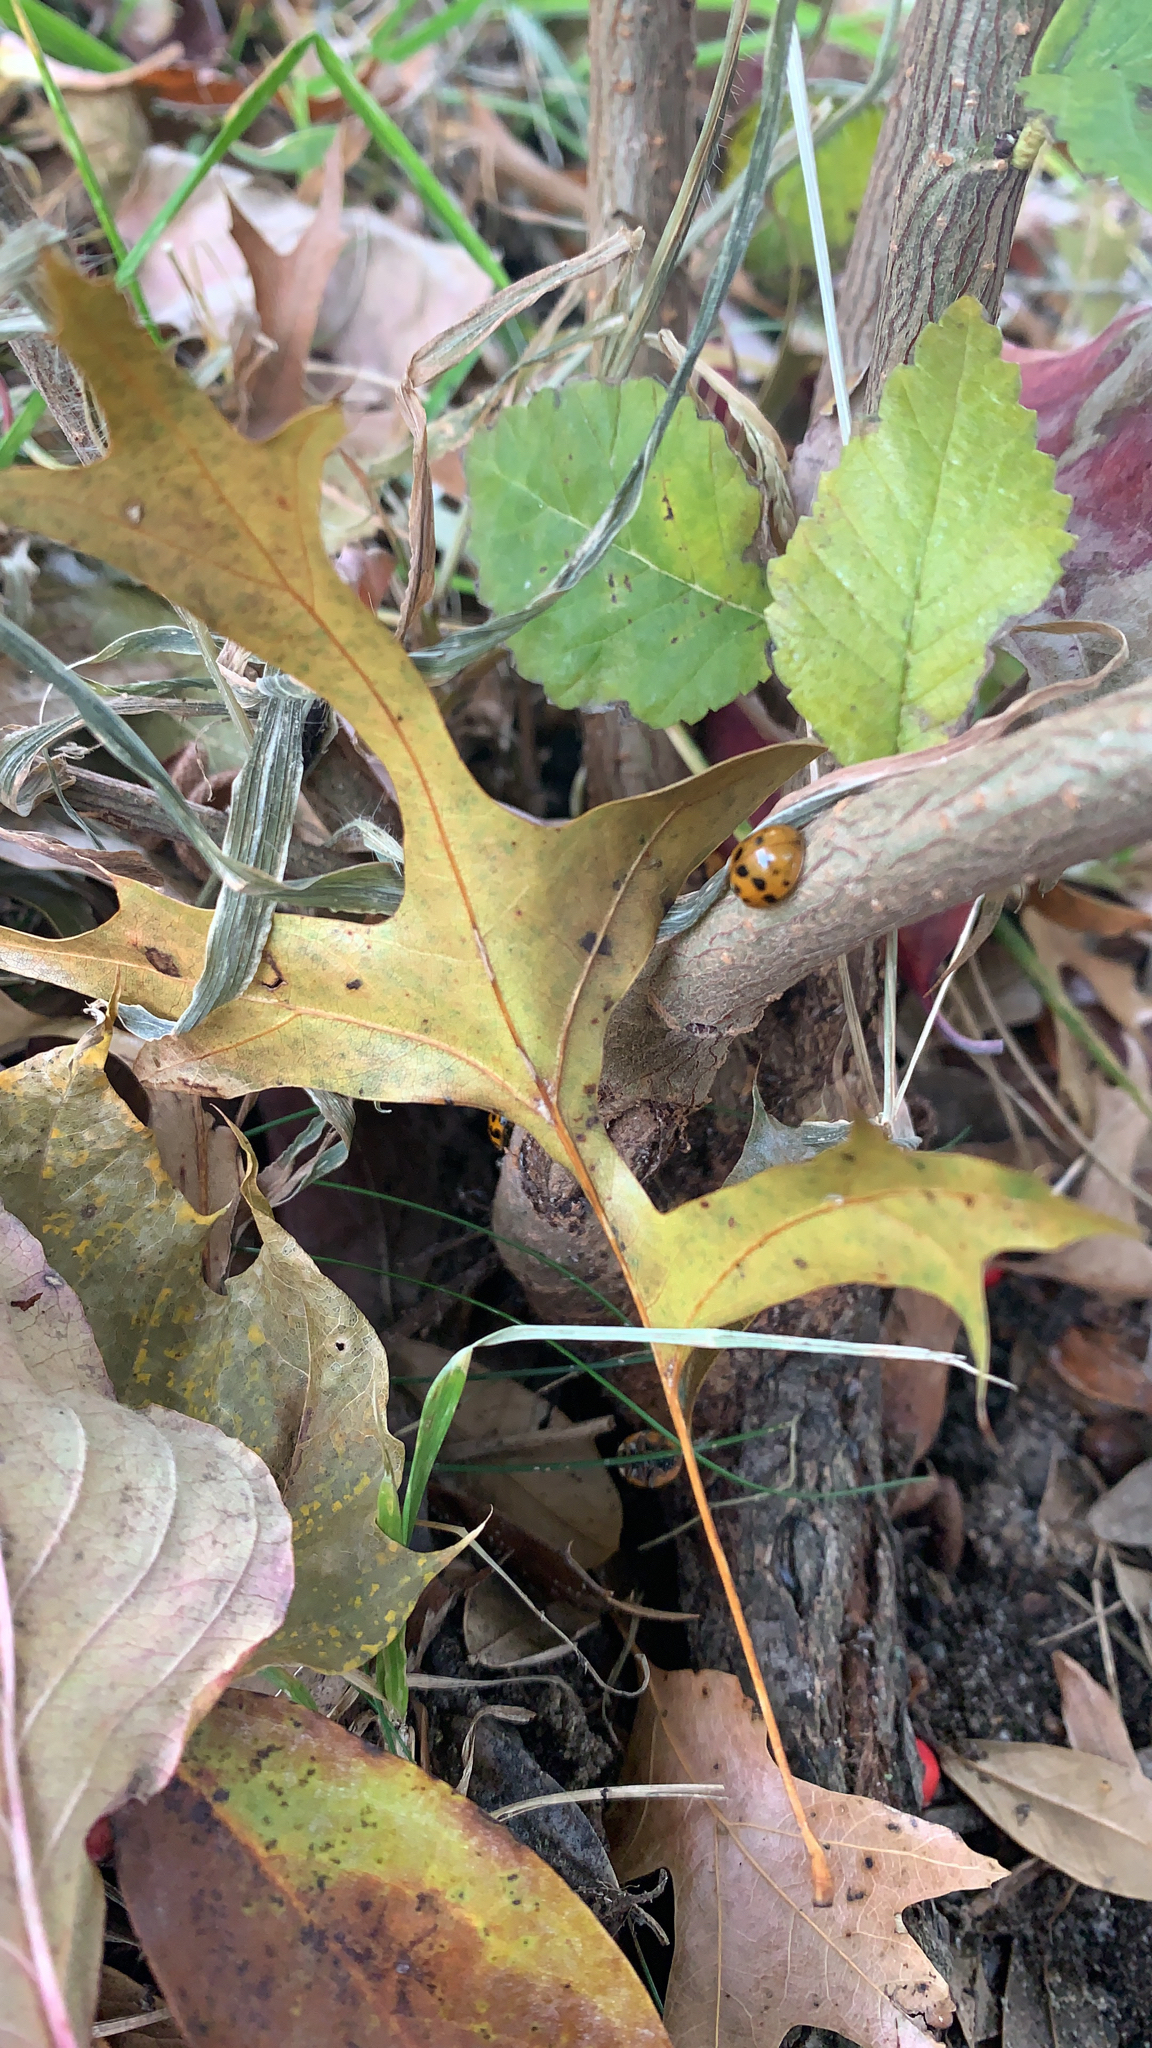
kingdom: Animalia
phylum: Arthropoda
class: Insecta
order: Coleoptera
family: Coccinellidae
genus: Harmonia
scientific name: Harmonia axyridis
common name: Harlequin ladybird
